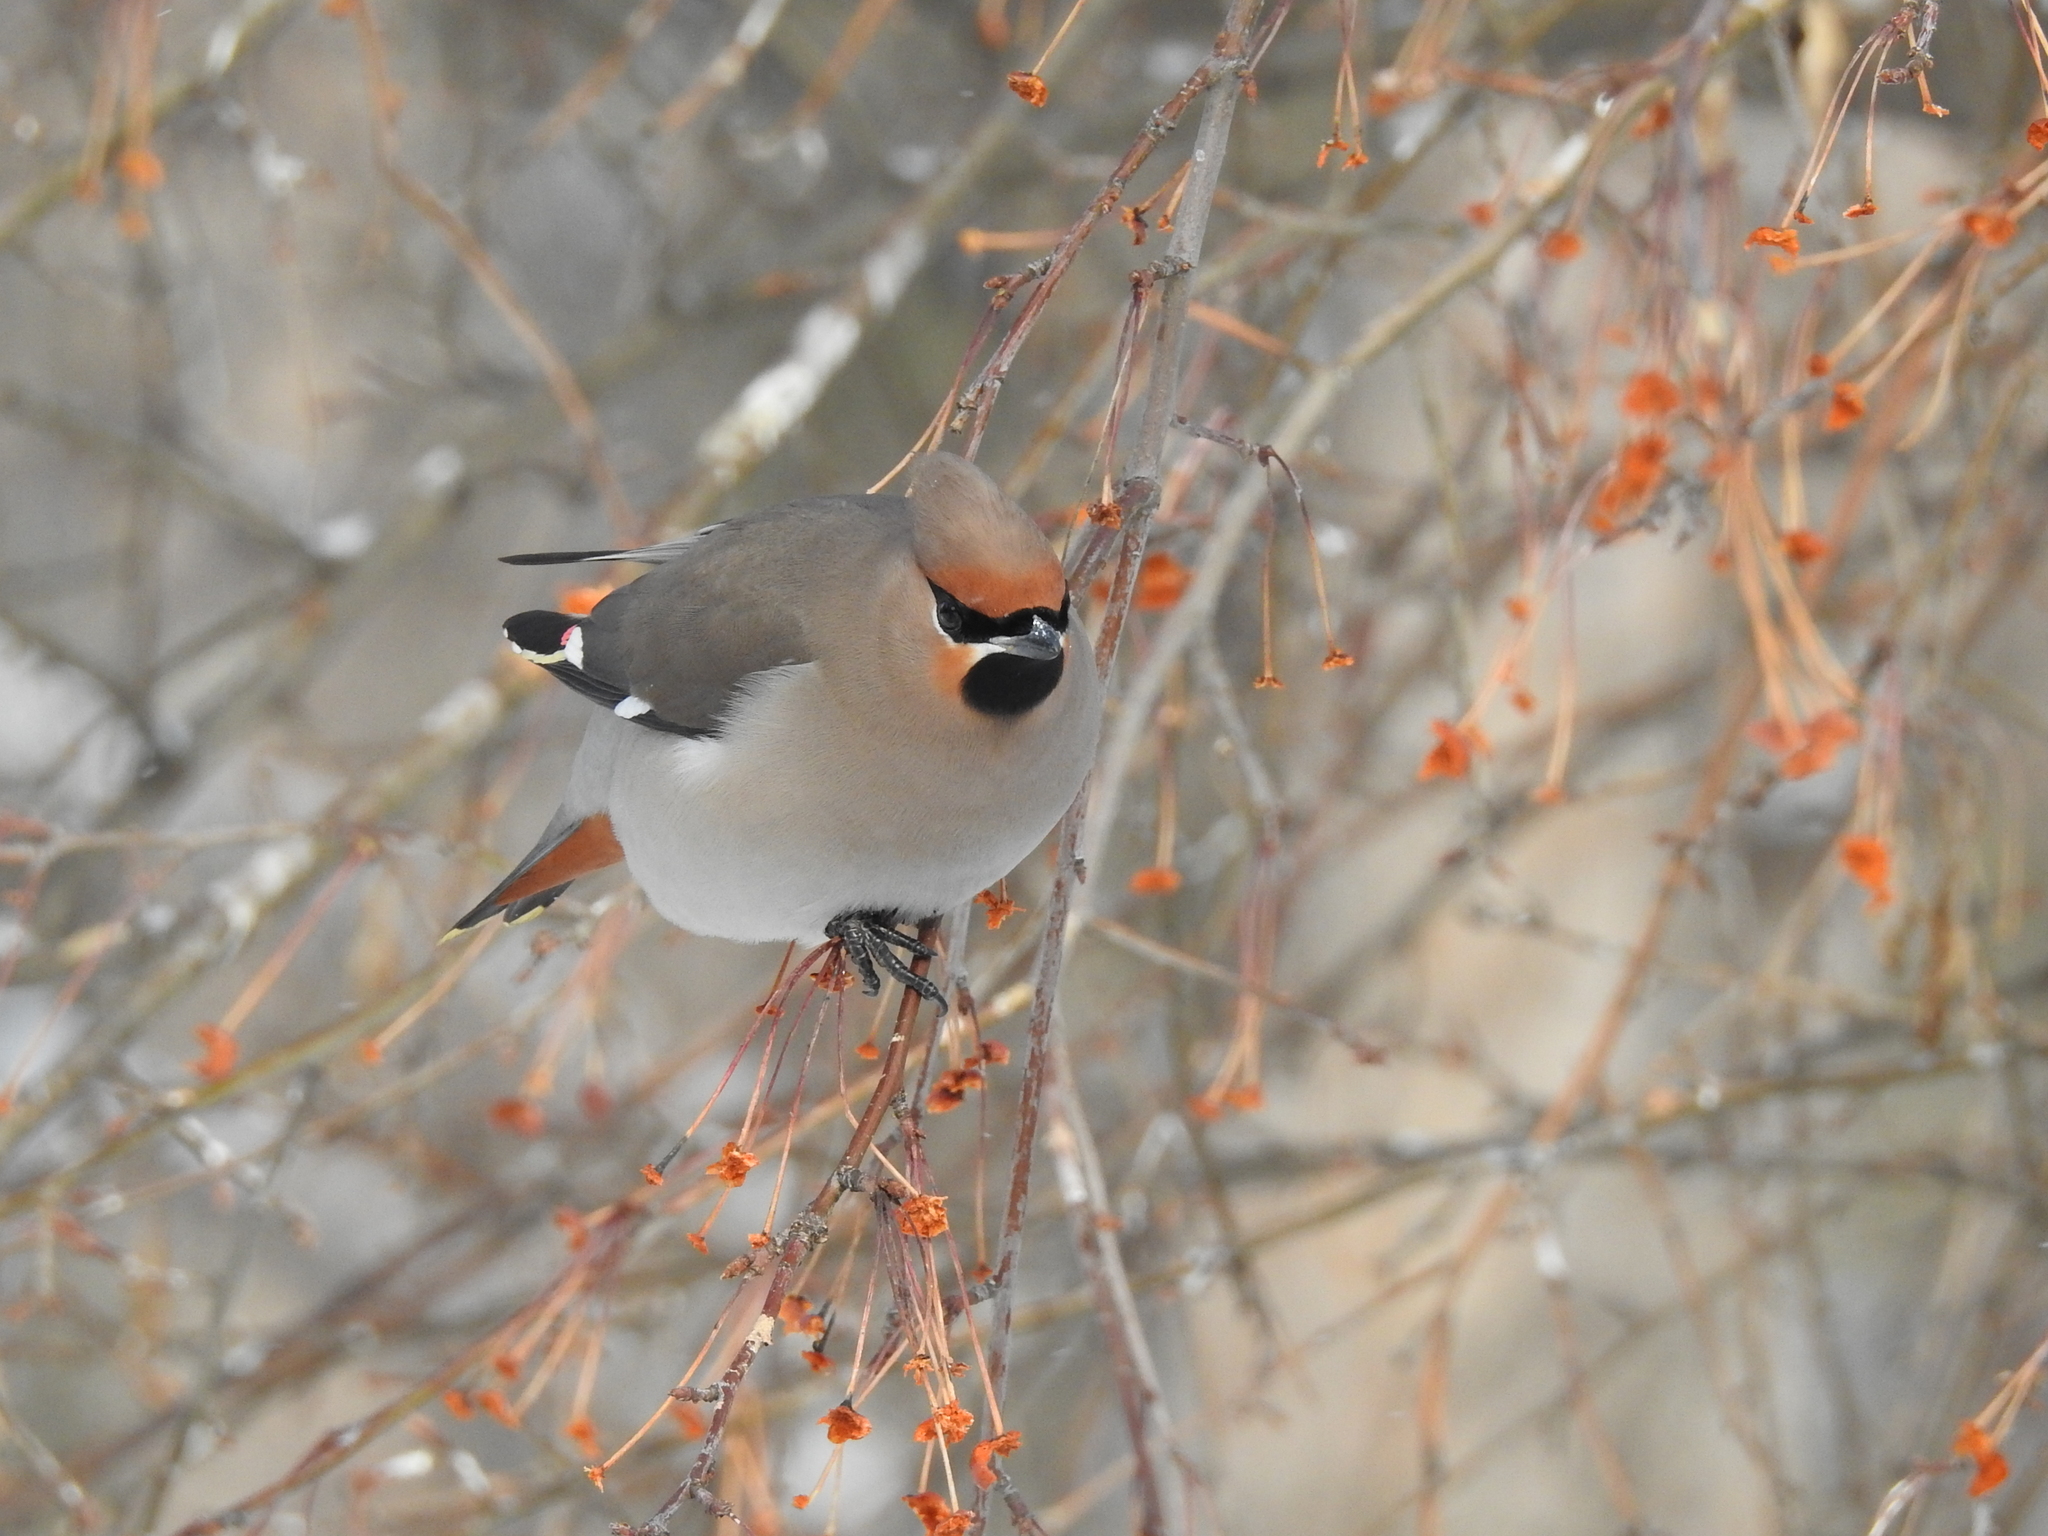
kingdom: Animalia
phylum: Chordata
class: Aves
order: Passeriformes
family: Bombycillidae
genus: Bombycilla
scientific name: Bombycilla garrulus
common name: Bohemian waxwing
